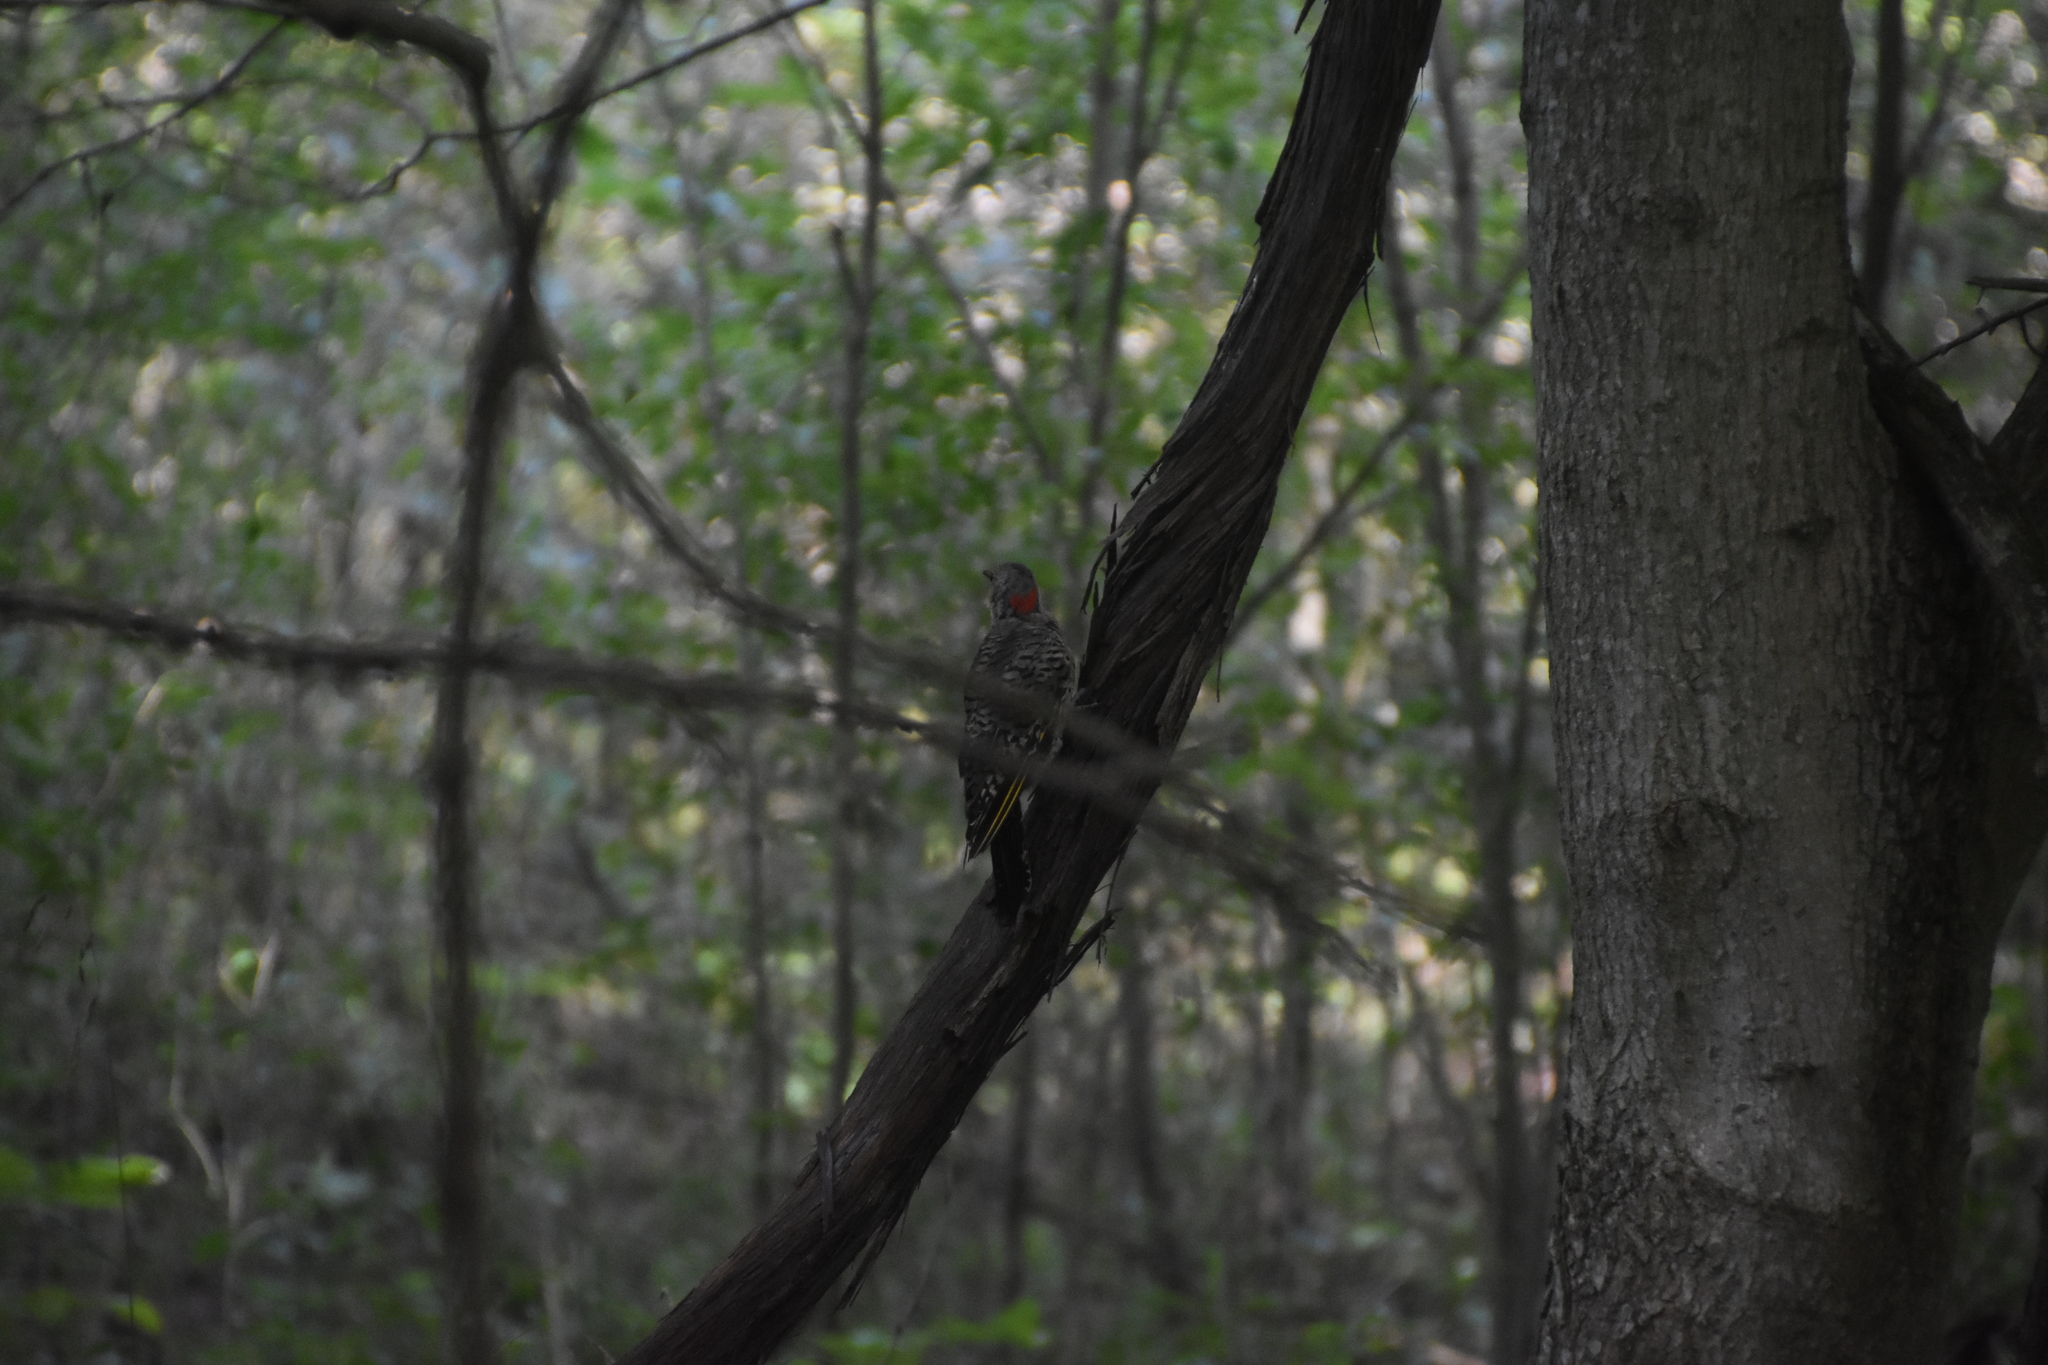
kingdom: Animalia
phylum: Chordata
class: Aves
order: Piciformes
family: Picidae
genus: Colaptes
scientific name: Colaptes auratus
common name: Northern flicker
